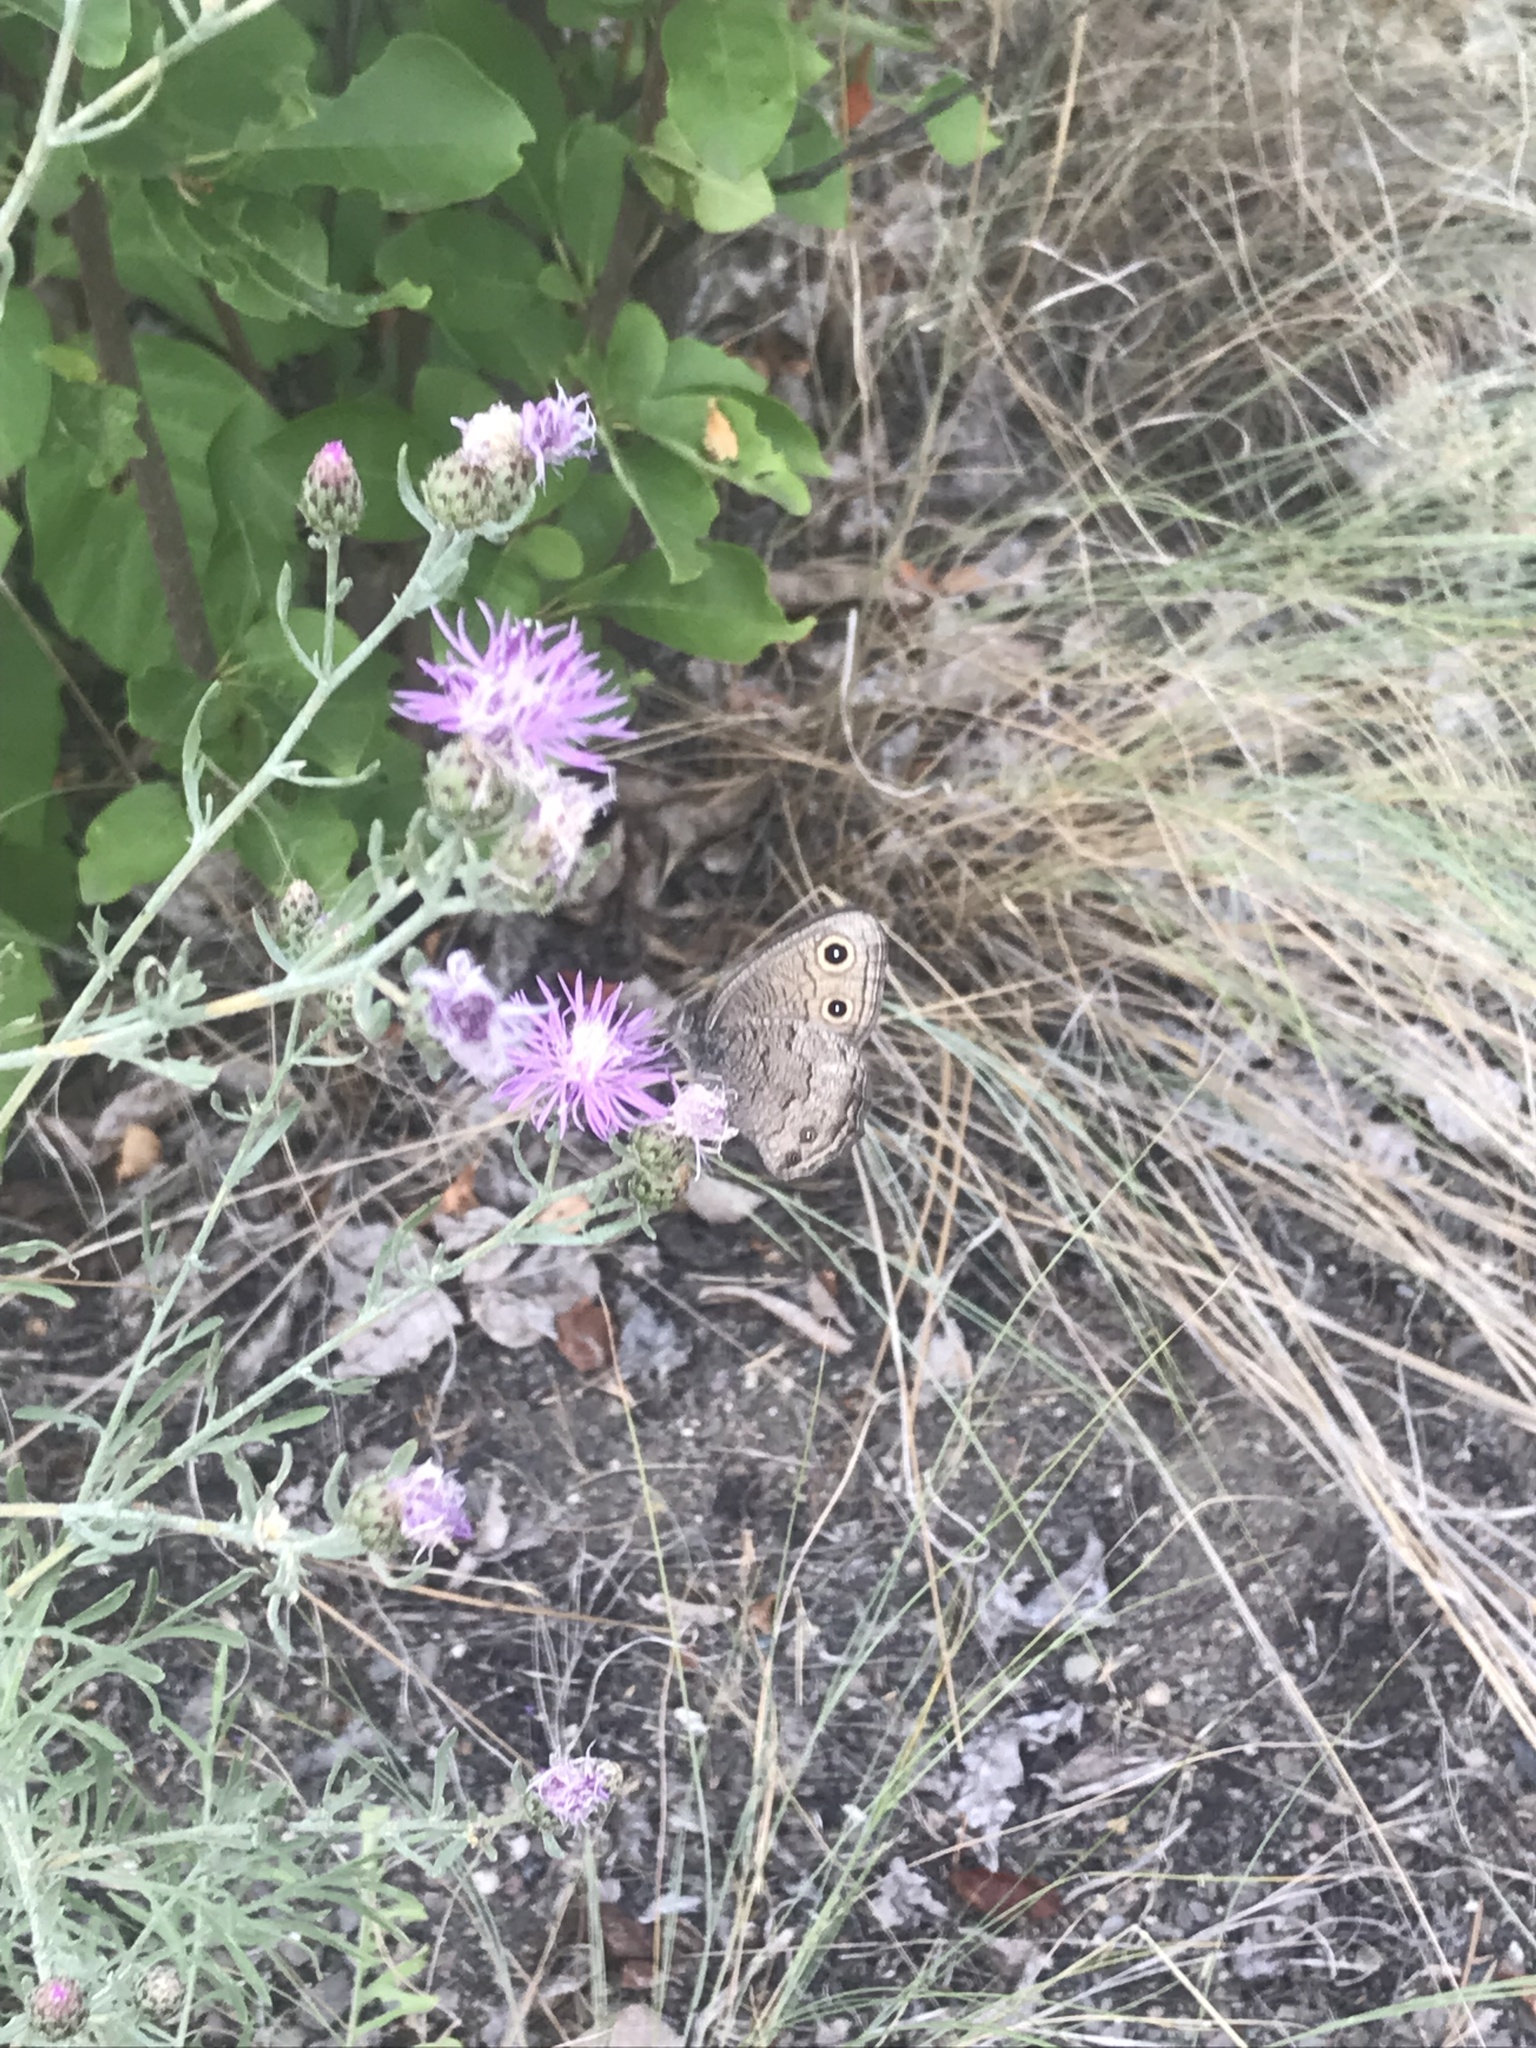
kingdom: Animalia
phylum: Arthropoda
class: Insecta
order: Lepidoptera
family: Nymphalidae
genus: Cercyonis
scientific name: Cercyonis sthenele
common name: Great basin wood-nymph
